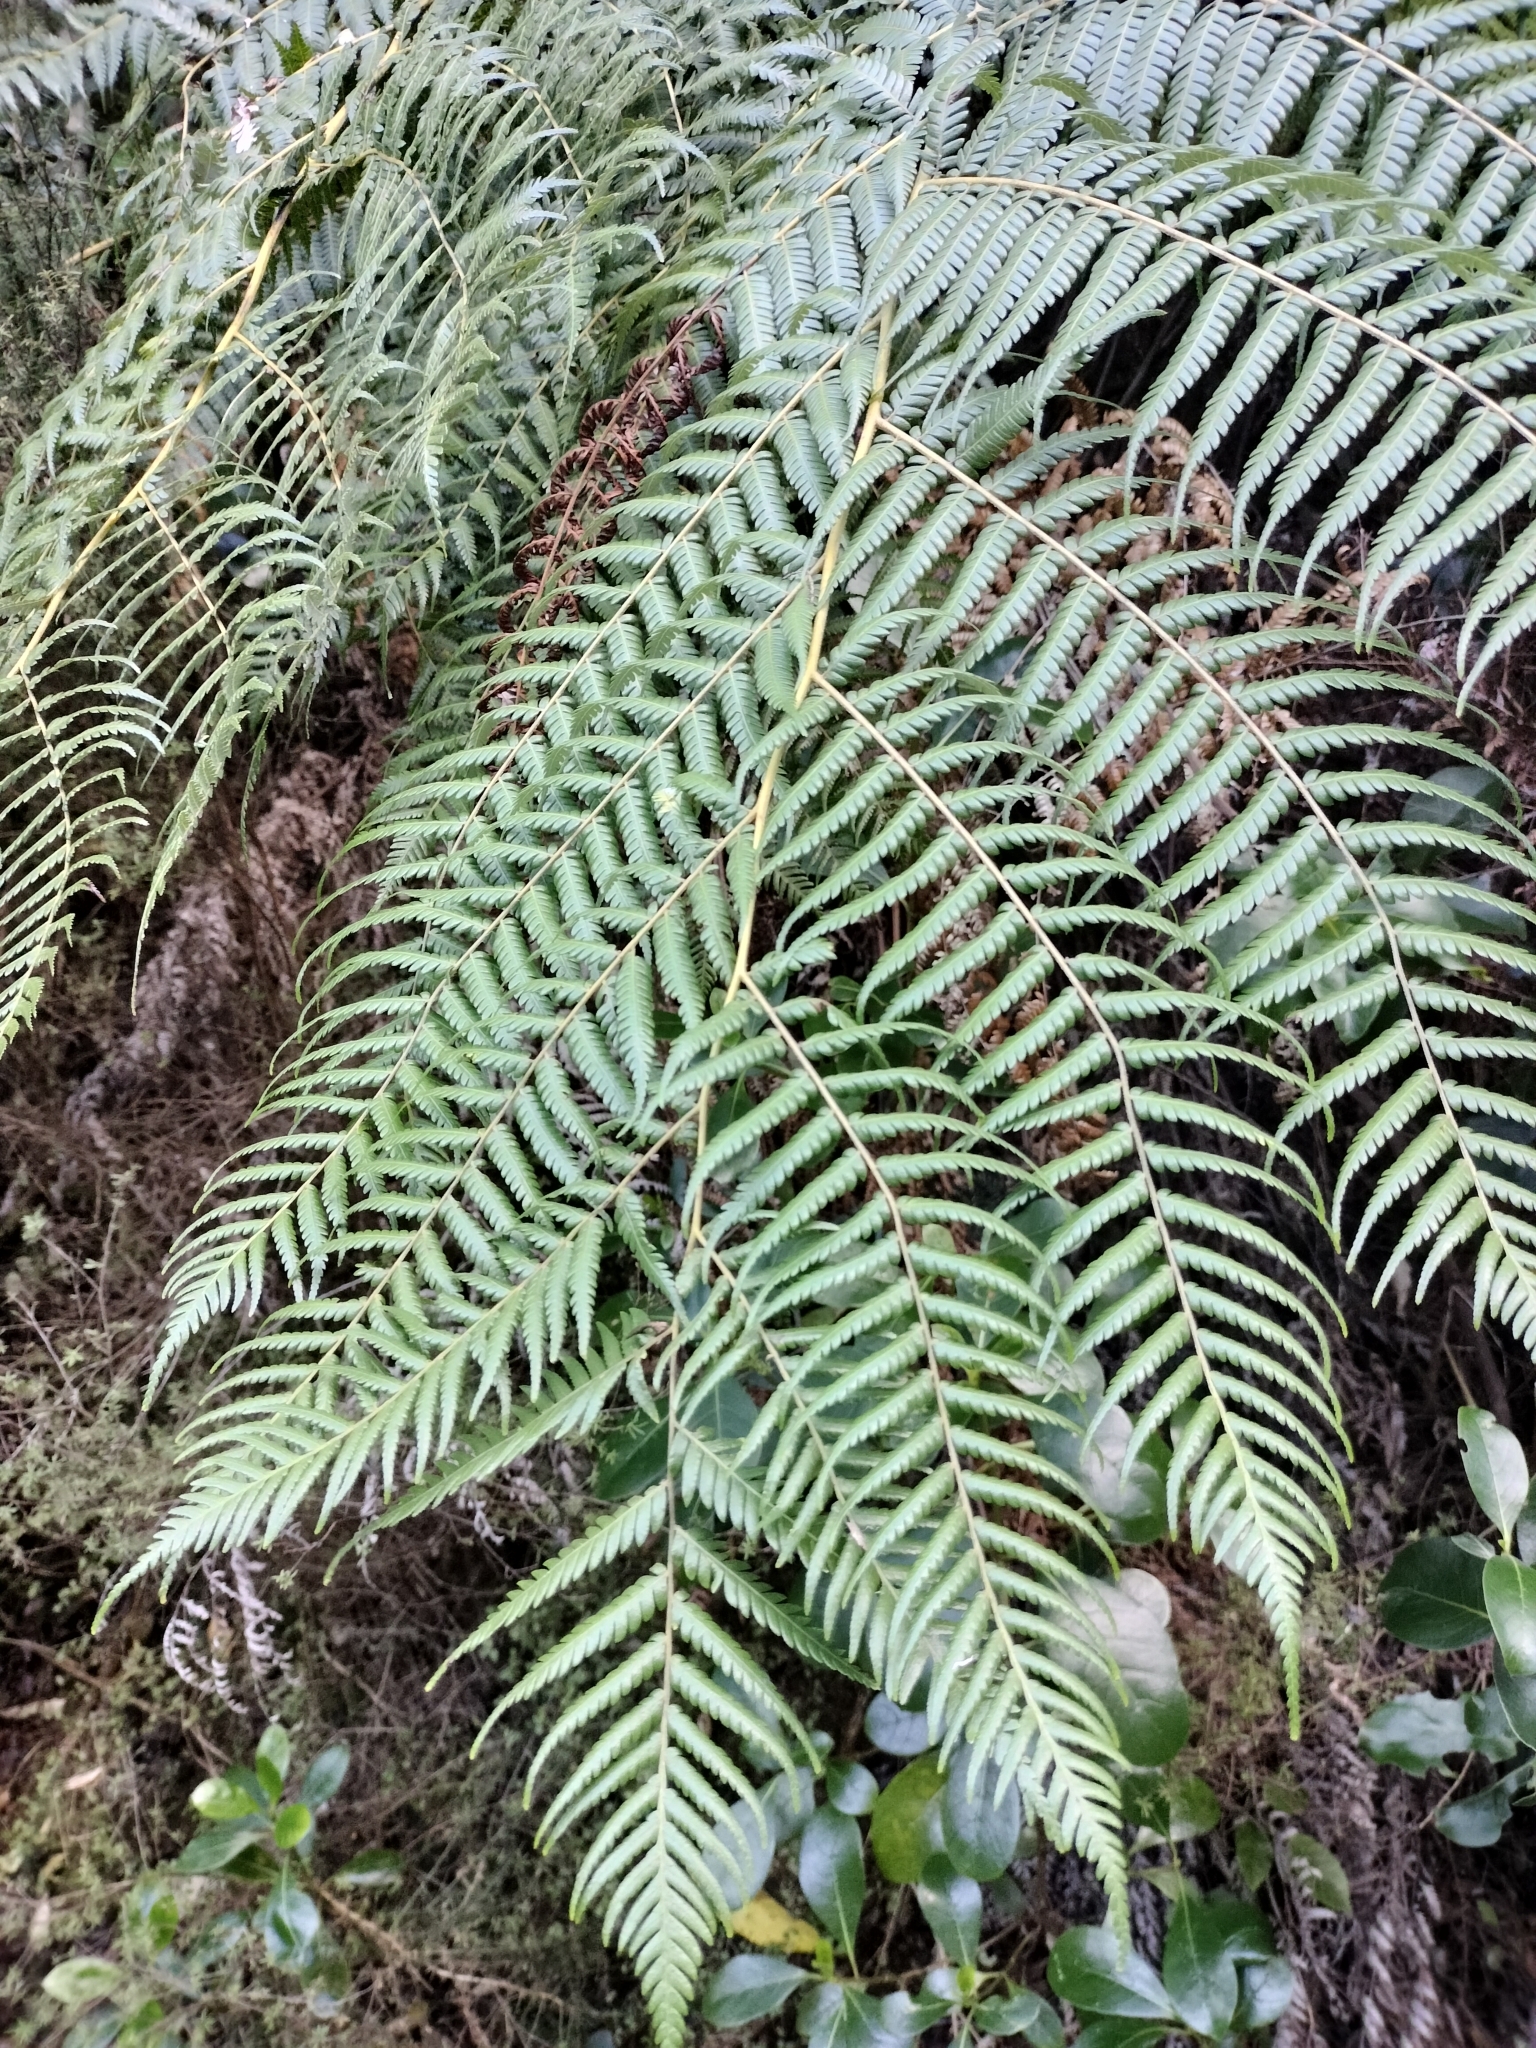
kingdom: Plantae
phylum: Tracheophyta
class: Polypodiopsida
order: Cyatheales
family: Cyatheaceae
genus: Alsophila
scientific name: Alsophila dealbata
